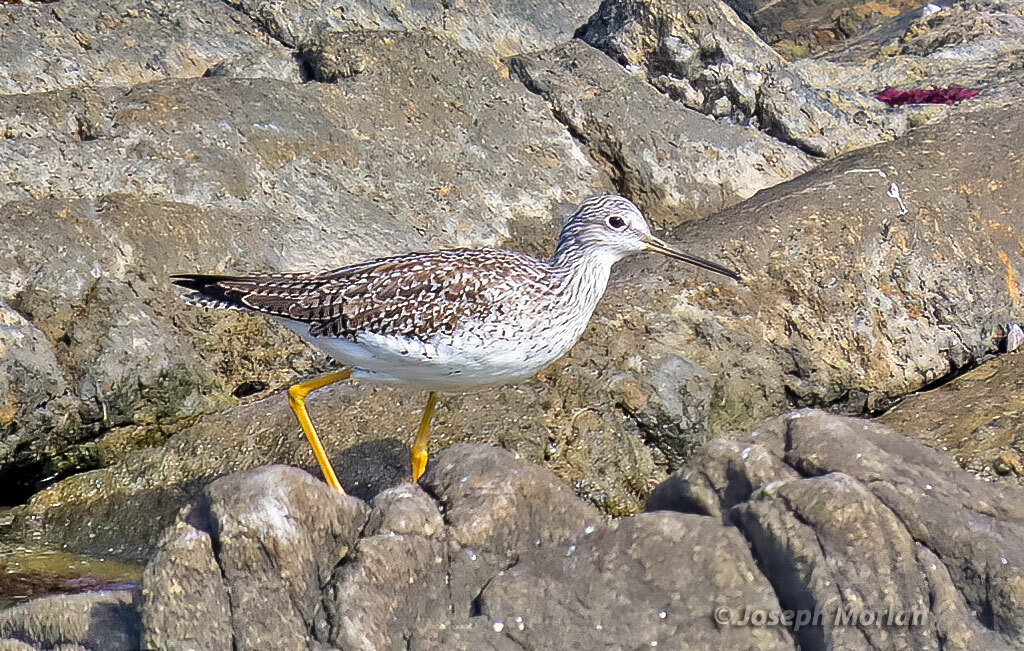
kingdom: Animalia
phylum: Chordata
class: Aves
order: Charadriiformes
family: Scolopacidae
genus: Tringa
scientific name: Tringa flavipes
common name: Lesser yellowlegs
